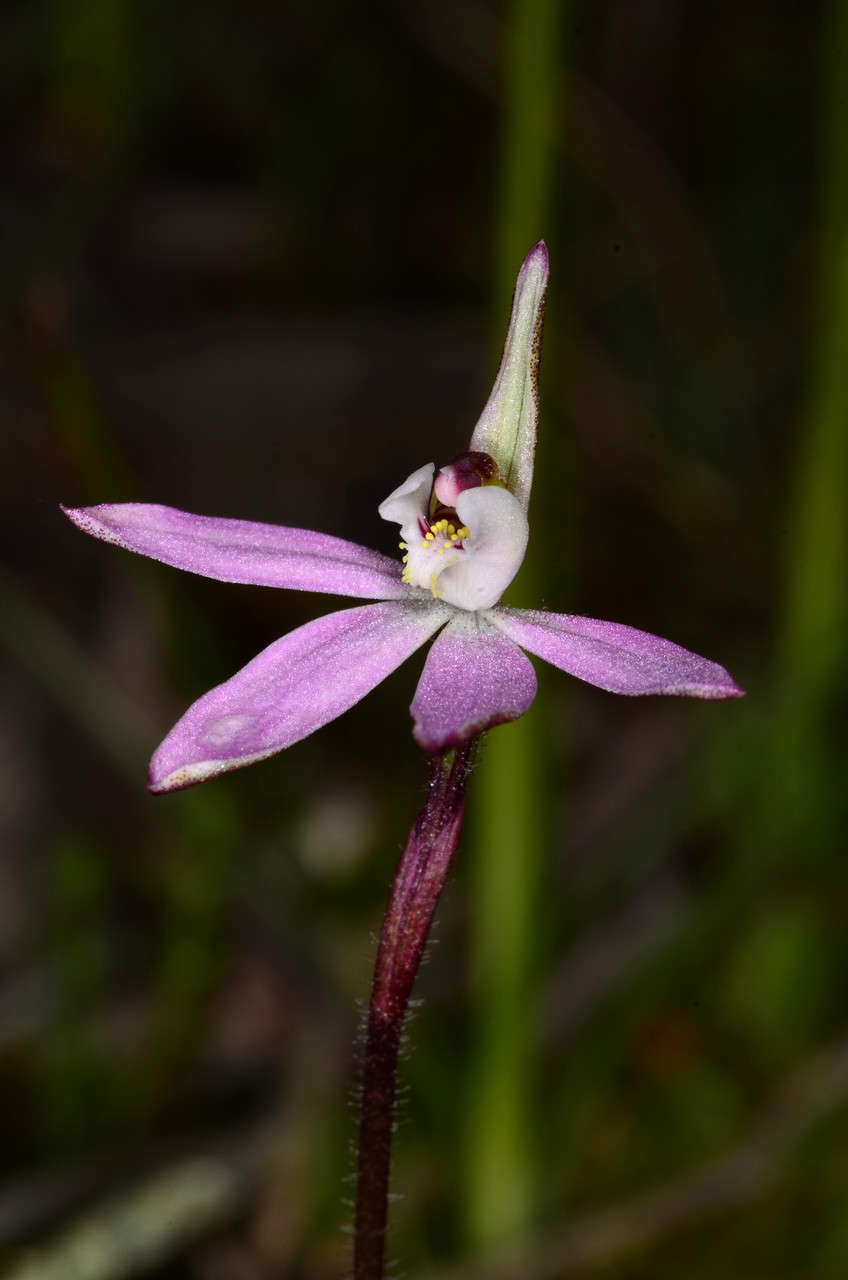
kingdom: Plantae
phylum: Tracheophyta
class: Liliopsida
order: Asparagales
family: Orchidaceae
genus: Caladenia
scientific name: Caladenia fuscata
